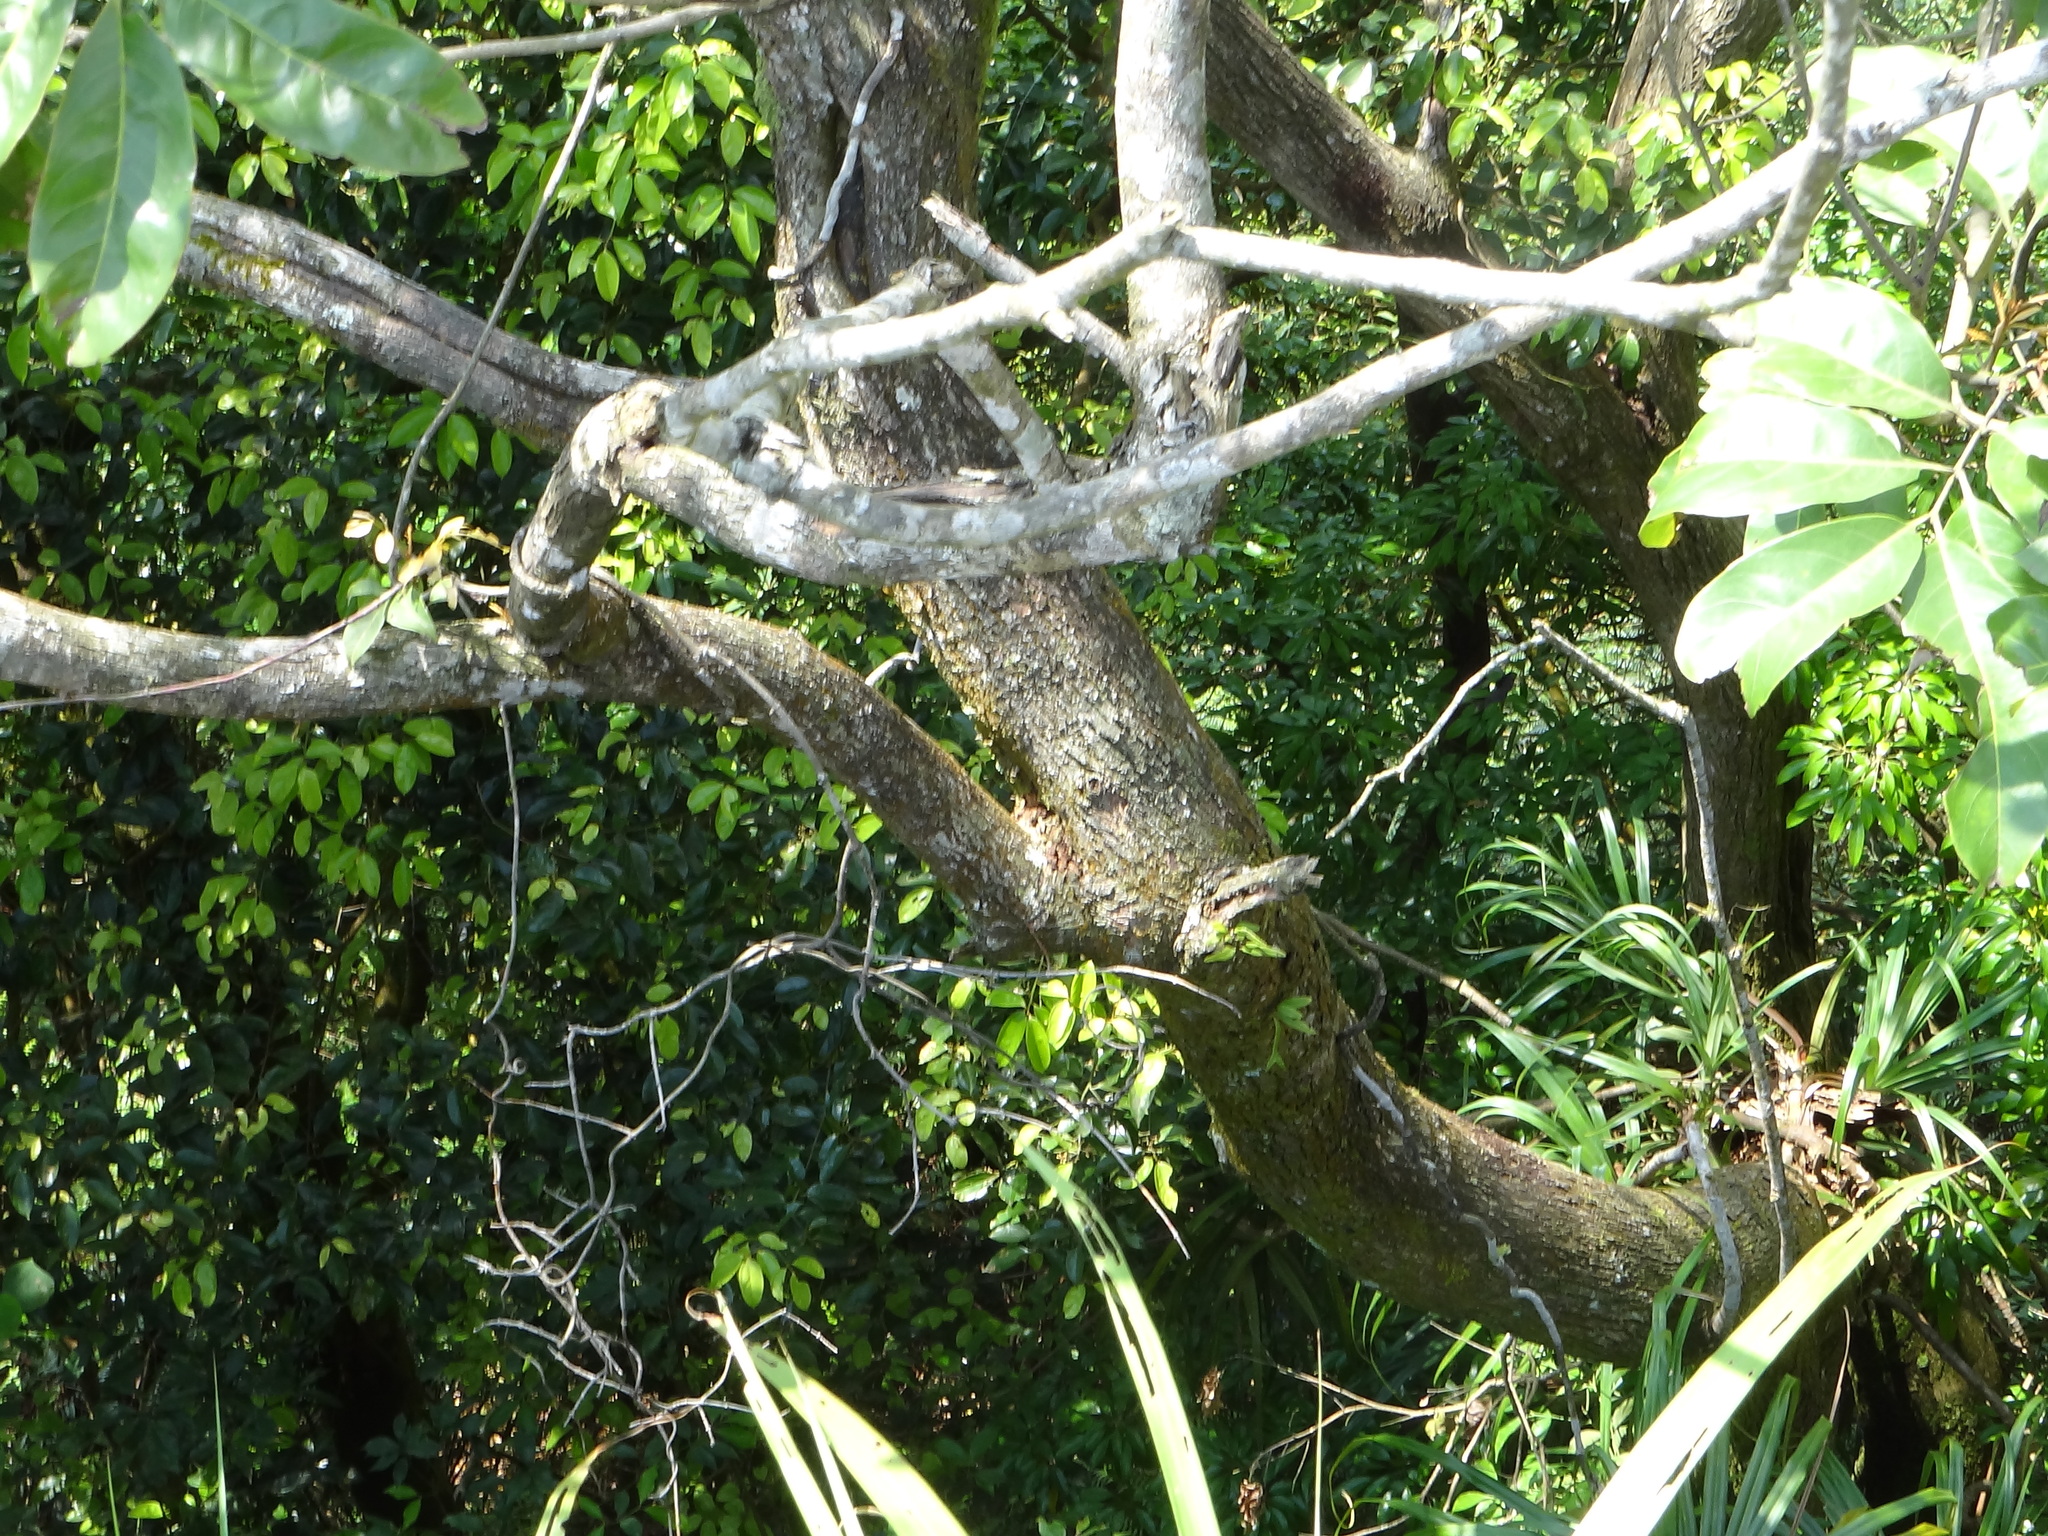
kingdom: Plantae
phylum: Tracheophyta
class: Magnoliopsida
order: Fagales
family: Juglandaceae
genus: Engelhardia
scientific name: Engelhardia roxburghiana
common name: Golden malay beam
